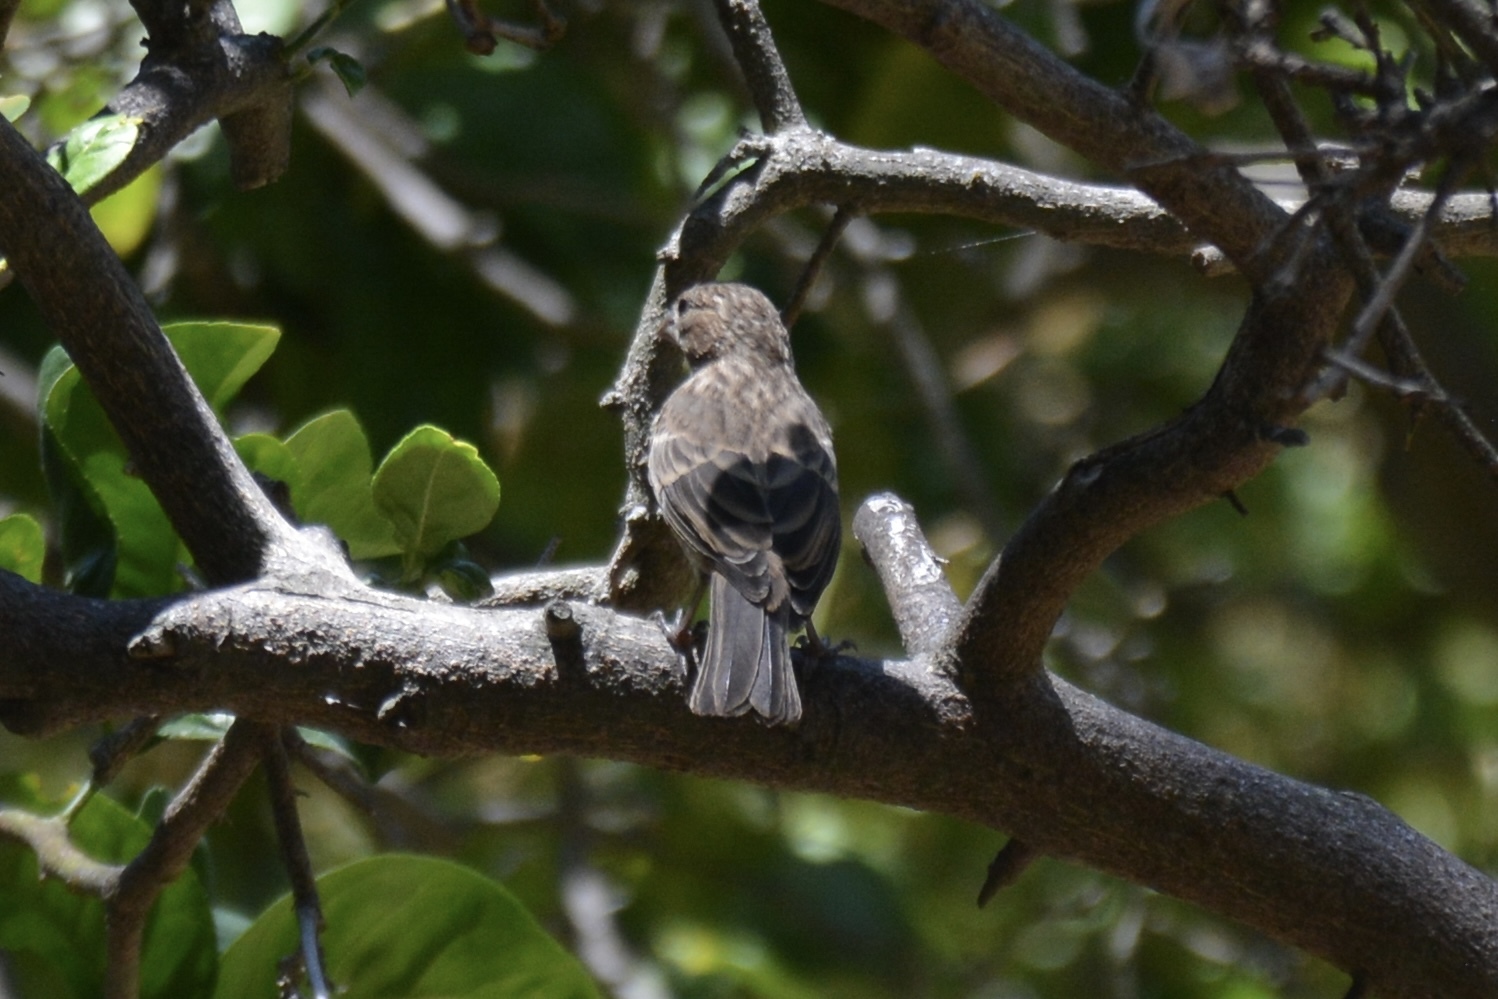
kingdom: Animalia
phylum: Chordata
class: Aves
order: Passeriformes
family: Fringillidae
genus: Haemorhous
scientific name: Haemorhous mexicanus
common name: House finch
